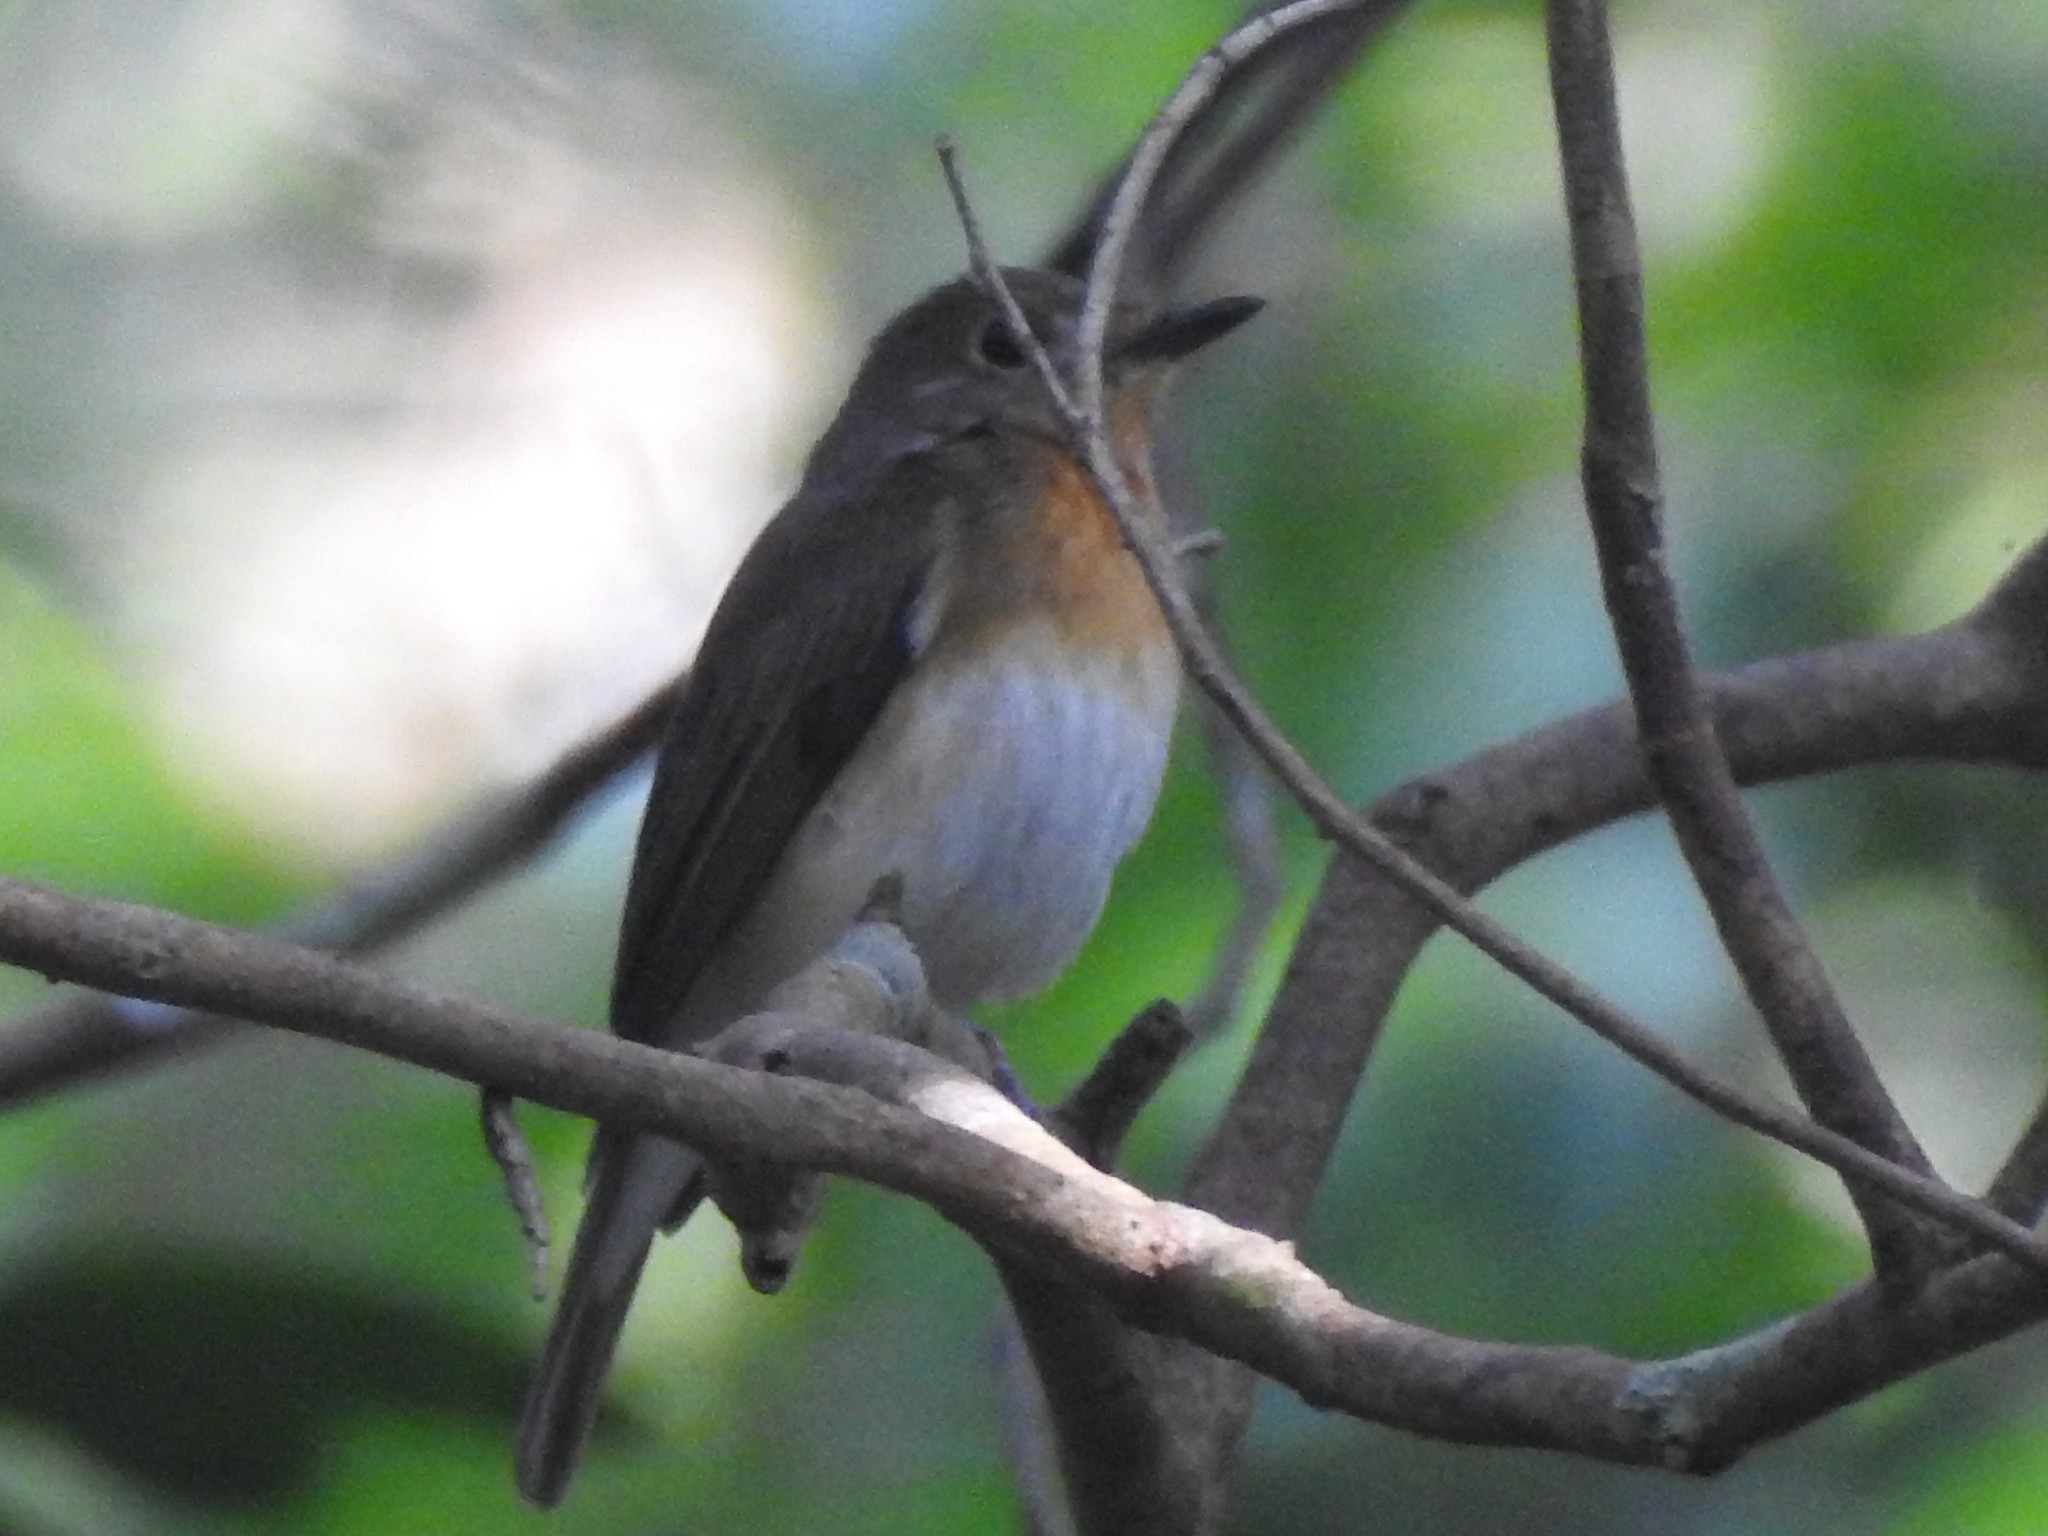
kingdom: Animalia
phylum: Chordata
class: Aves
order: Passeriformes
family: Muscicapidae
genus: Cyornis
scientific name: Cyornis rubeculoides
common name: Blue-throated blue flycatcher
